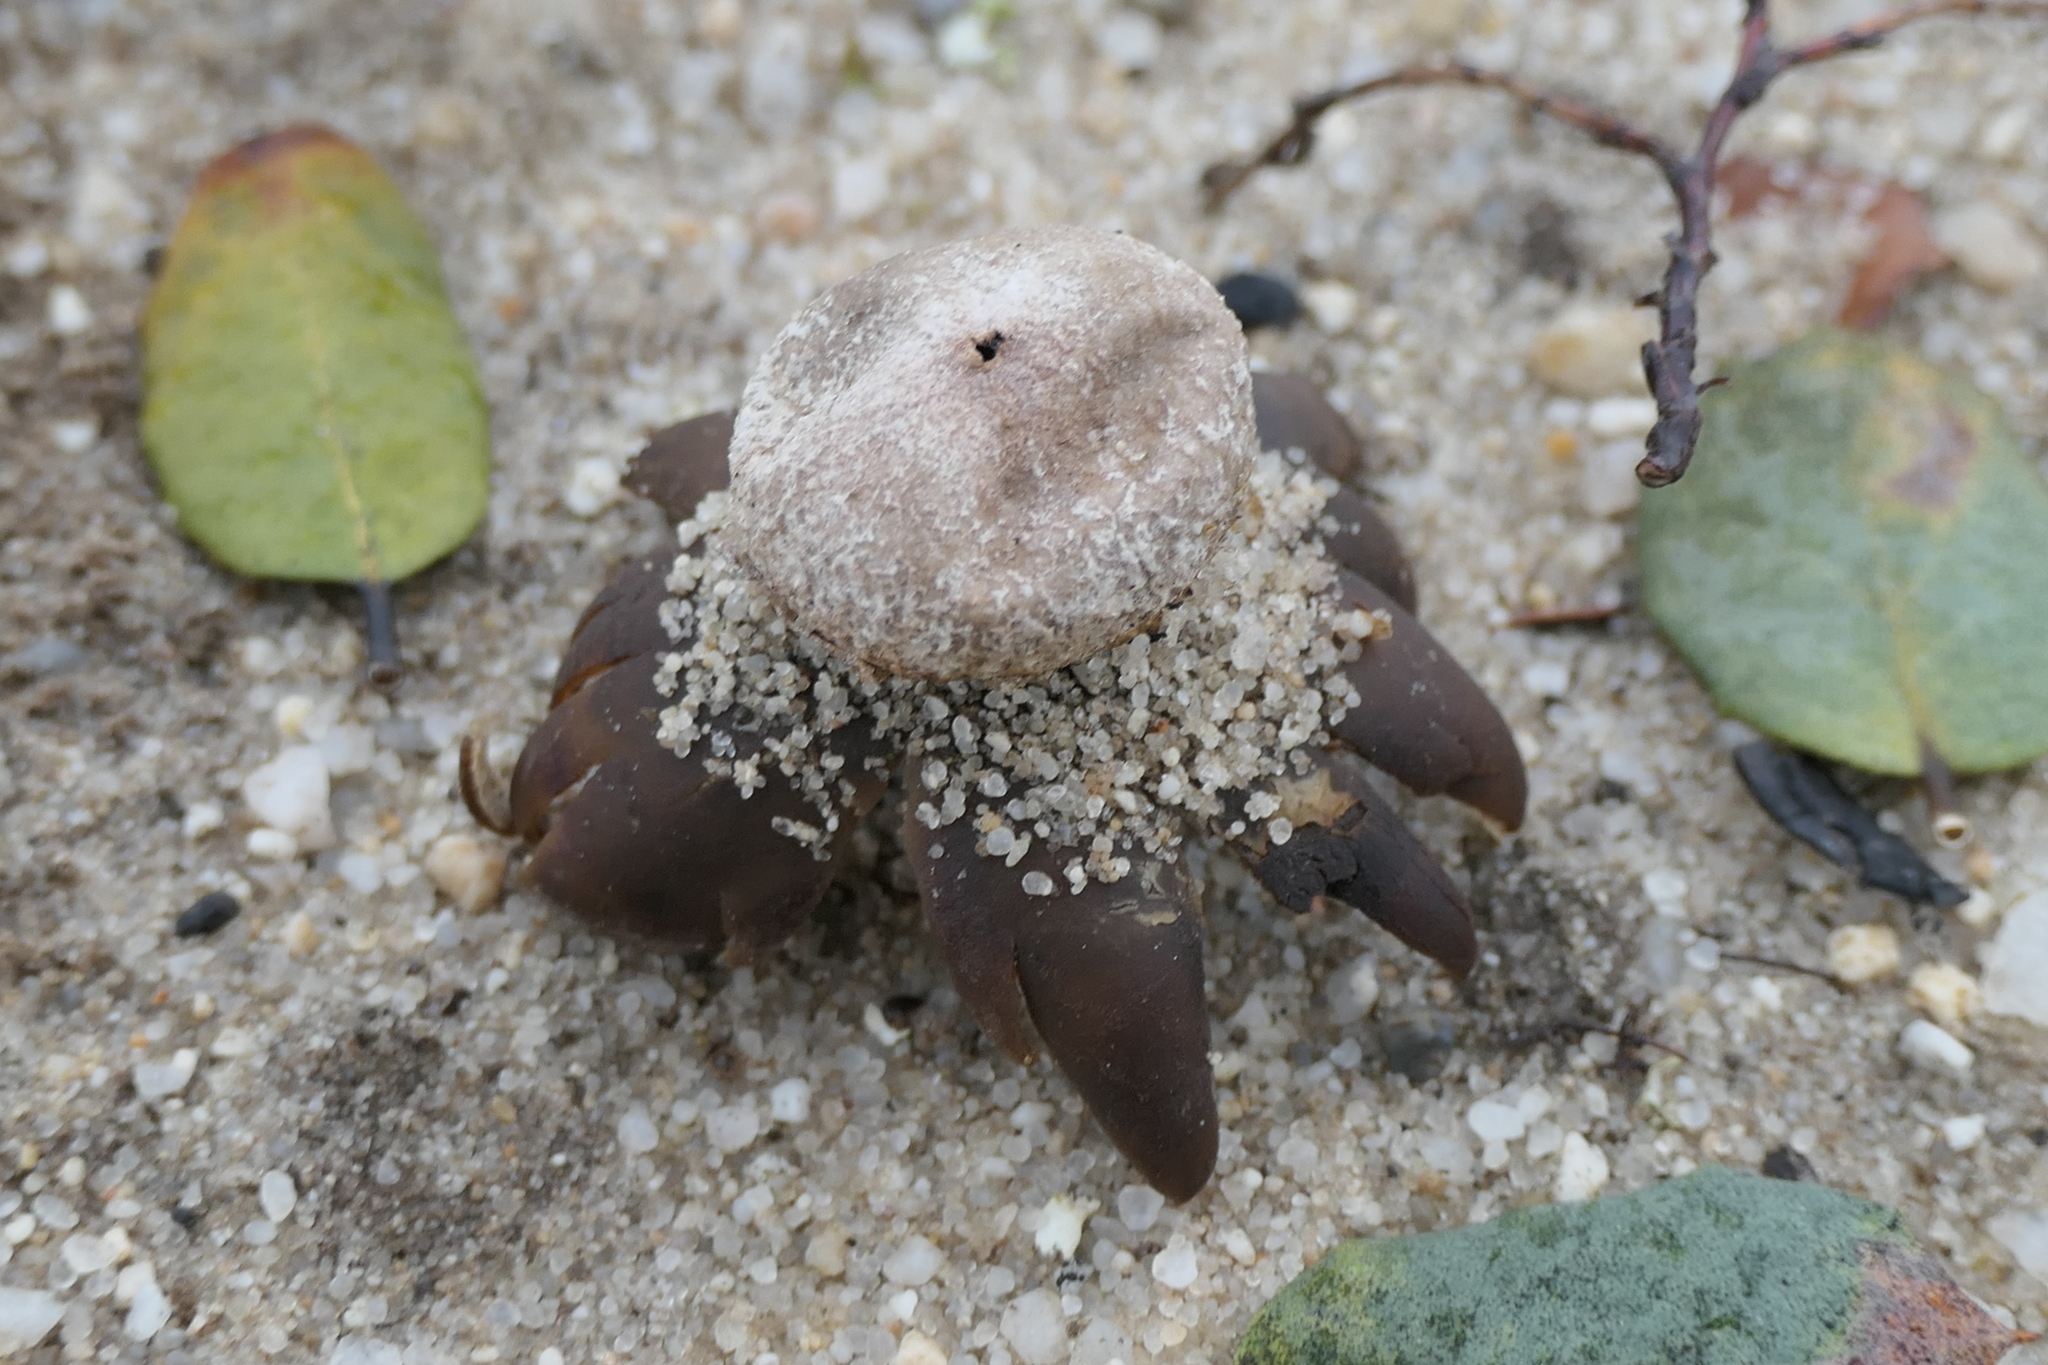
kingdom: Fungi
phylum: Basidiomycota
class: Agaricomycetes
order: Boletales
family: Diplocystidiaceae
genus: Astraeus
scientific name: Astraeus hygrometricus
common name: Barometer earthstar
